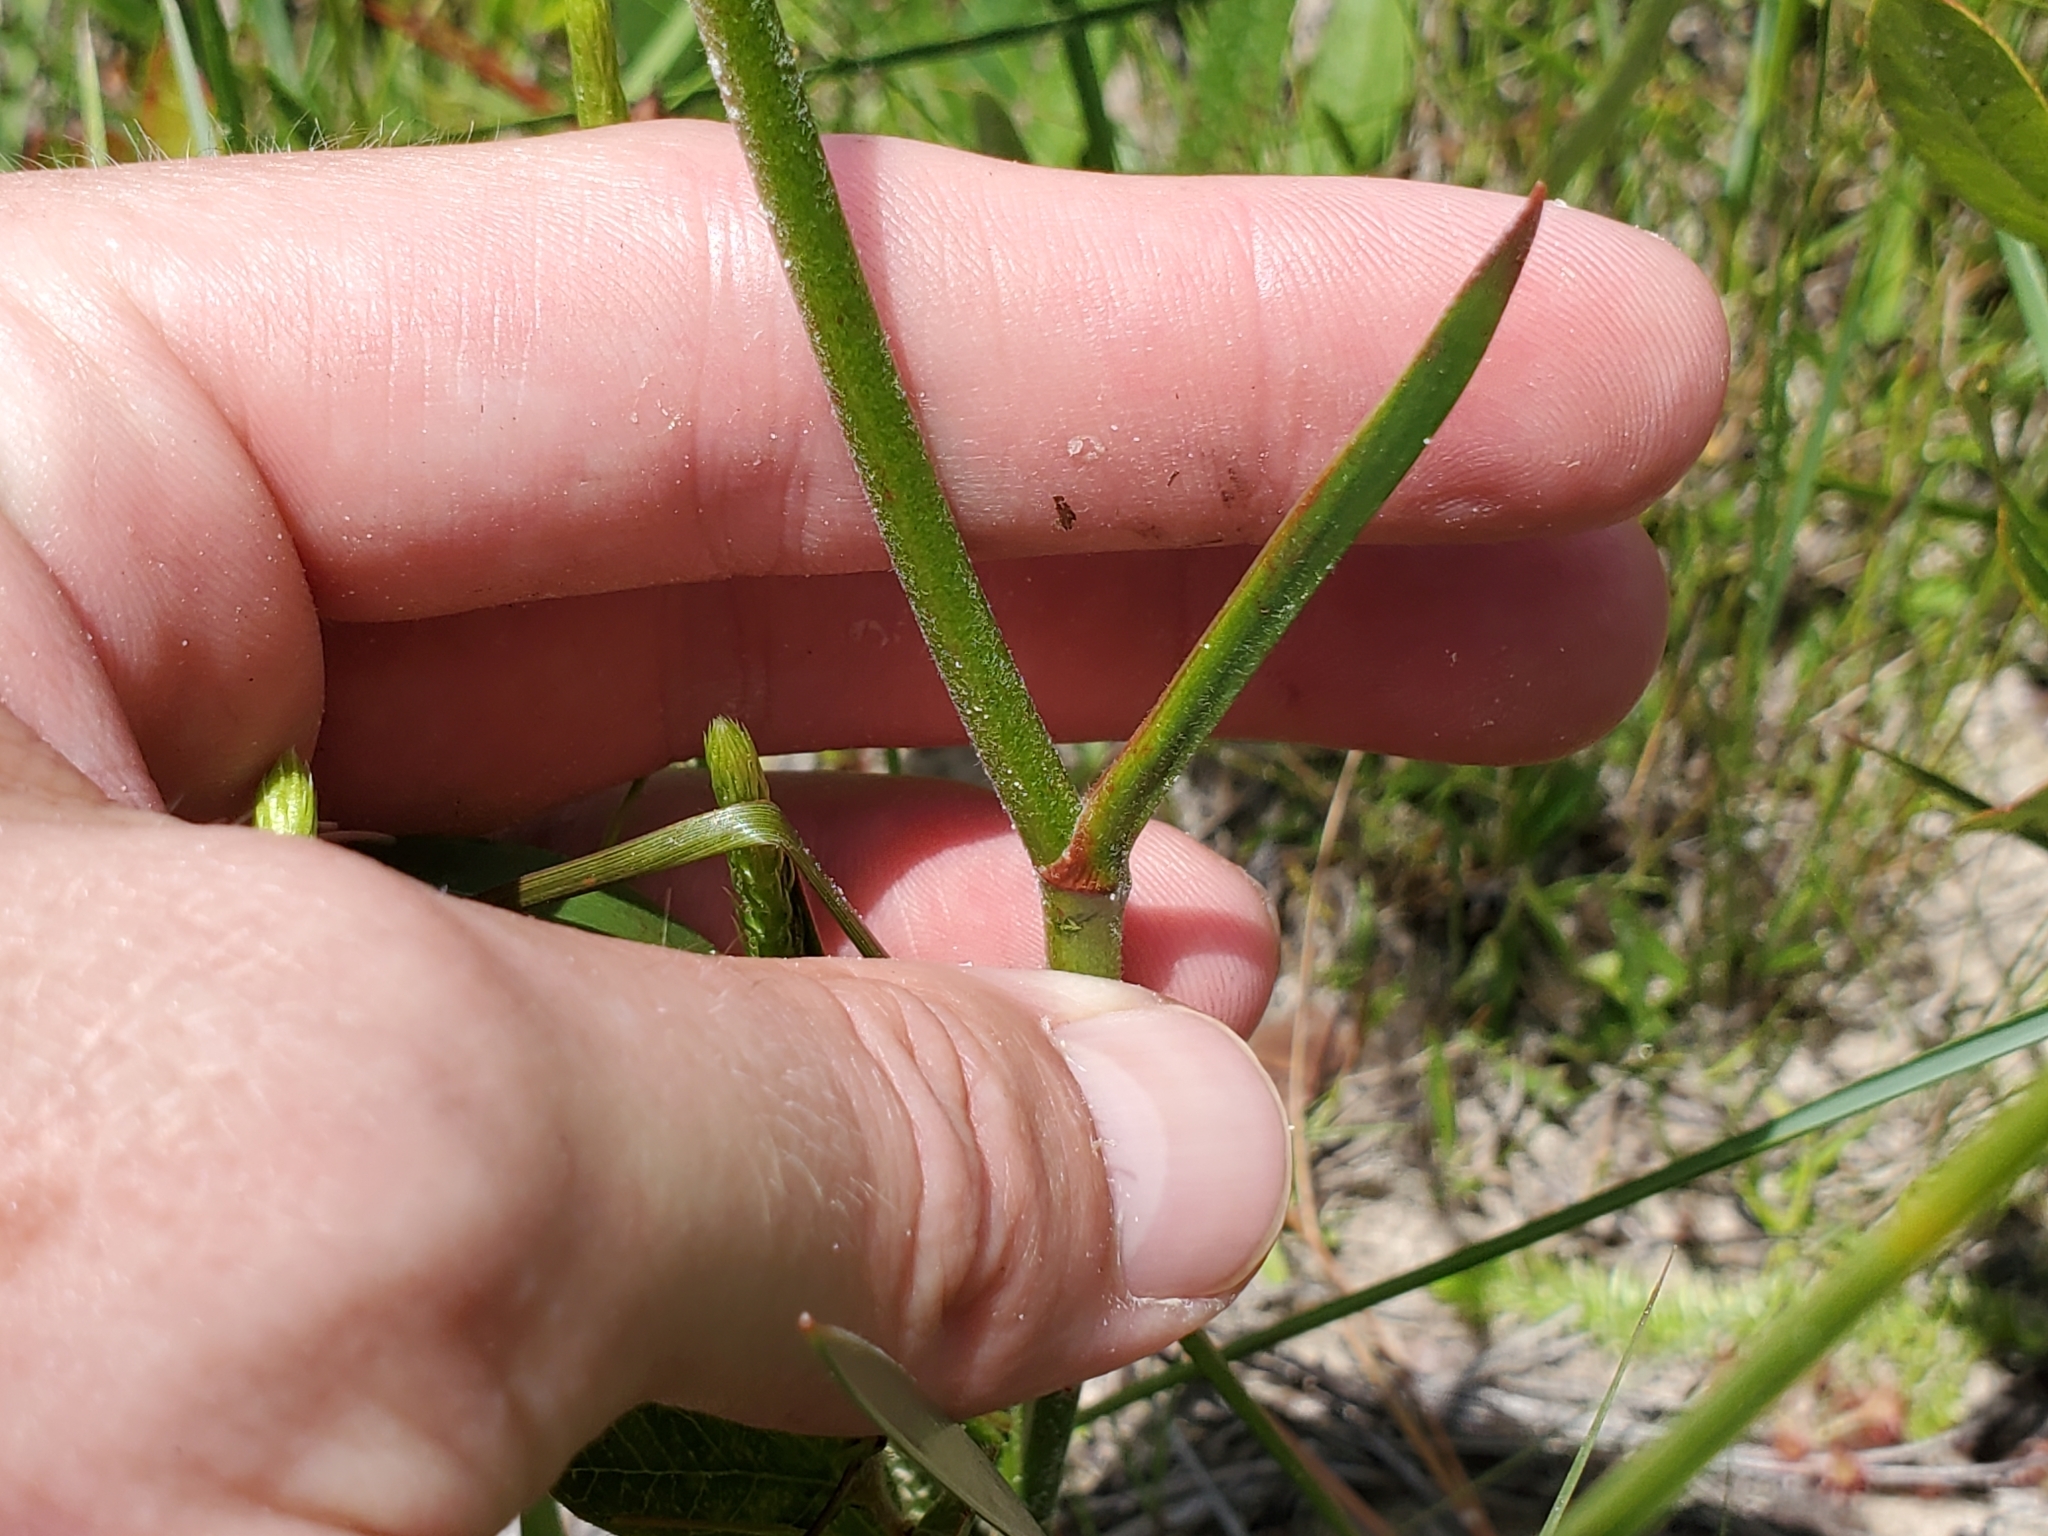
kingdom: Plantae
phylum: Tracheophyta
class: Liliopsida
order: Dioscoreales
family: Nartheciaceae
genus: Lophiola
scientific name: Lophiola aurea
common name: Golden-crest
